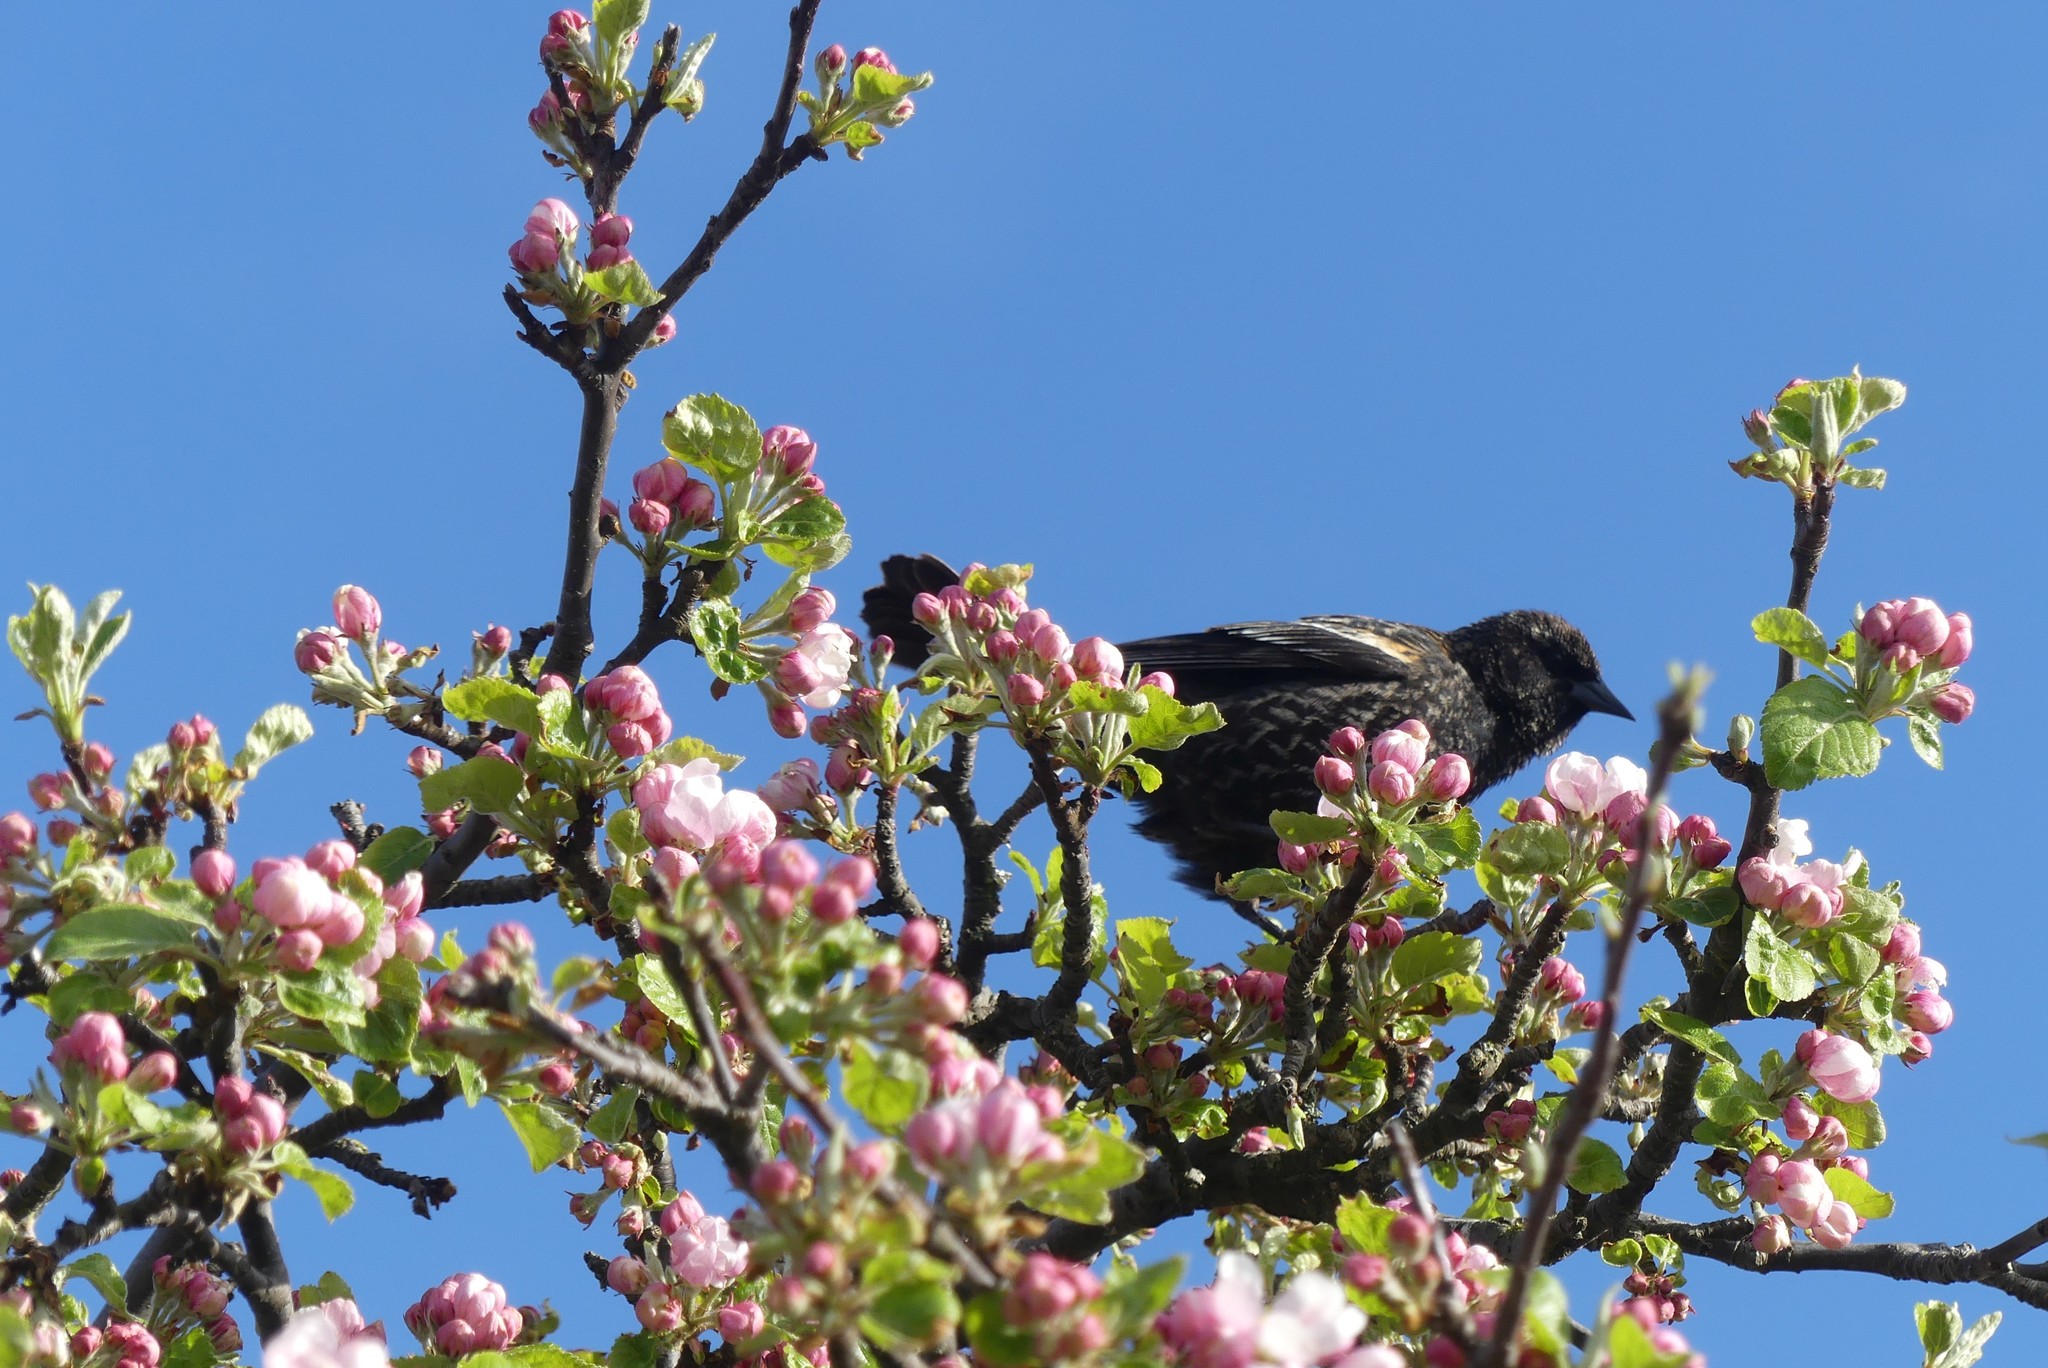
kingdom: Animalia
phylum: Chordata
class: Aves
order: Passeriformes
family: Icteridae
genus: Agelaius
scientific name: Agelaius phoeniceus
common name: Red-winged blackbird
